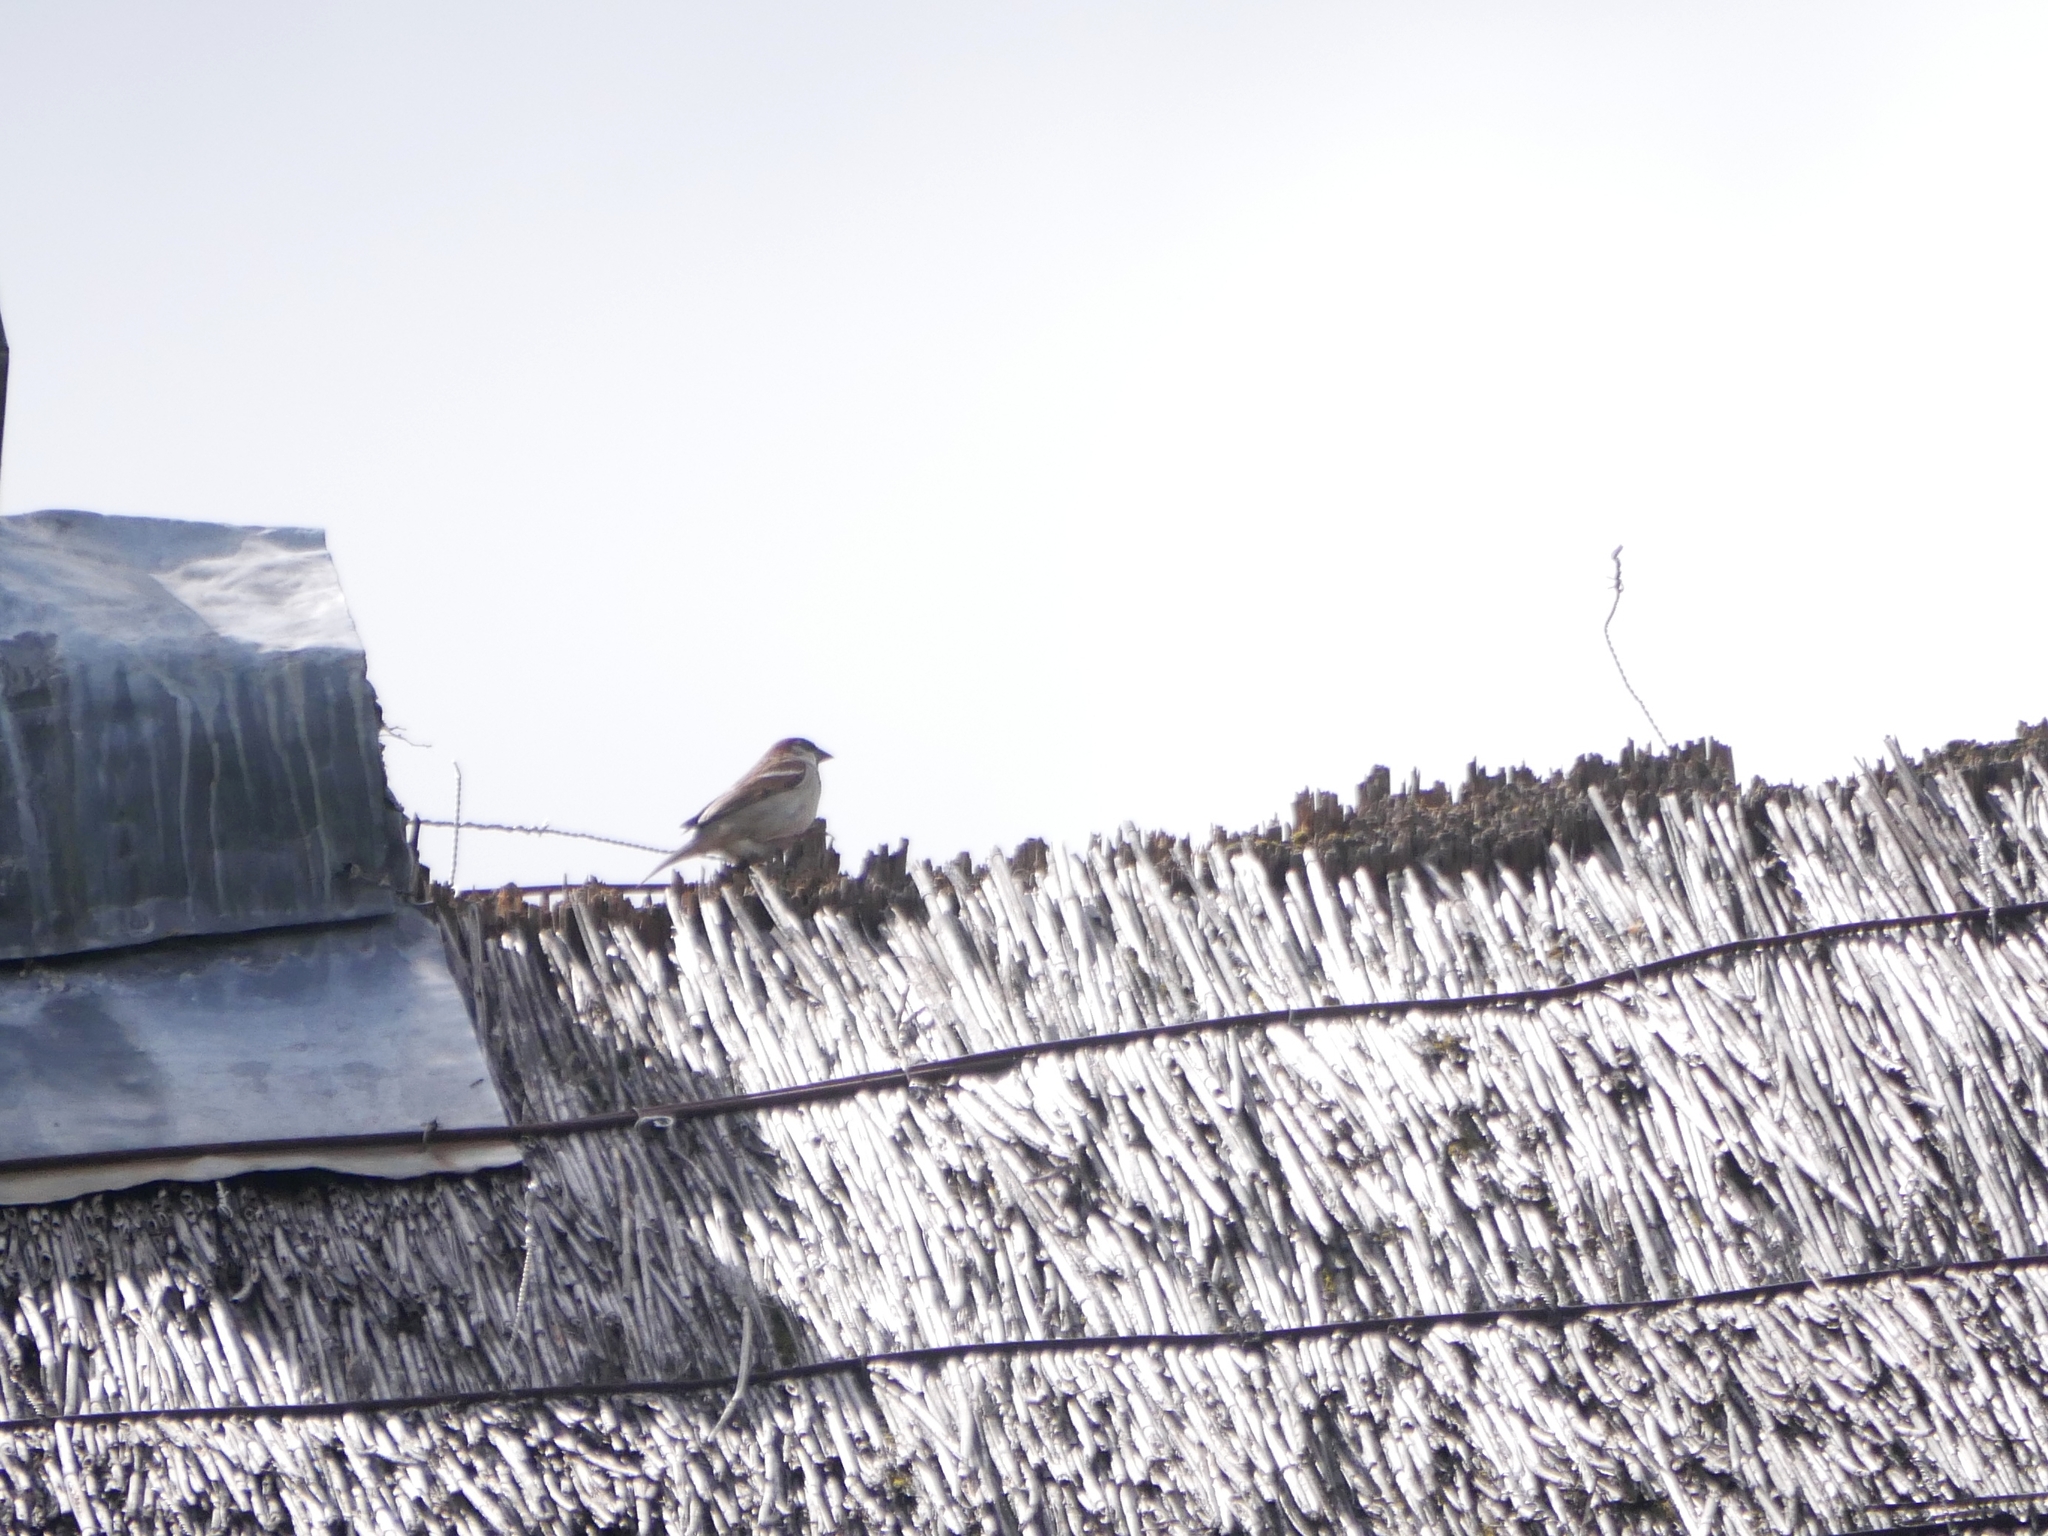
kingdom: Animalia
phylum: Chordata
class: Aves
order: Passeriformes
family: Passeridae
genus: Passer
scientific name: Passer domesticus
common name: House sparrow
